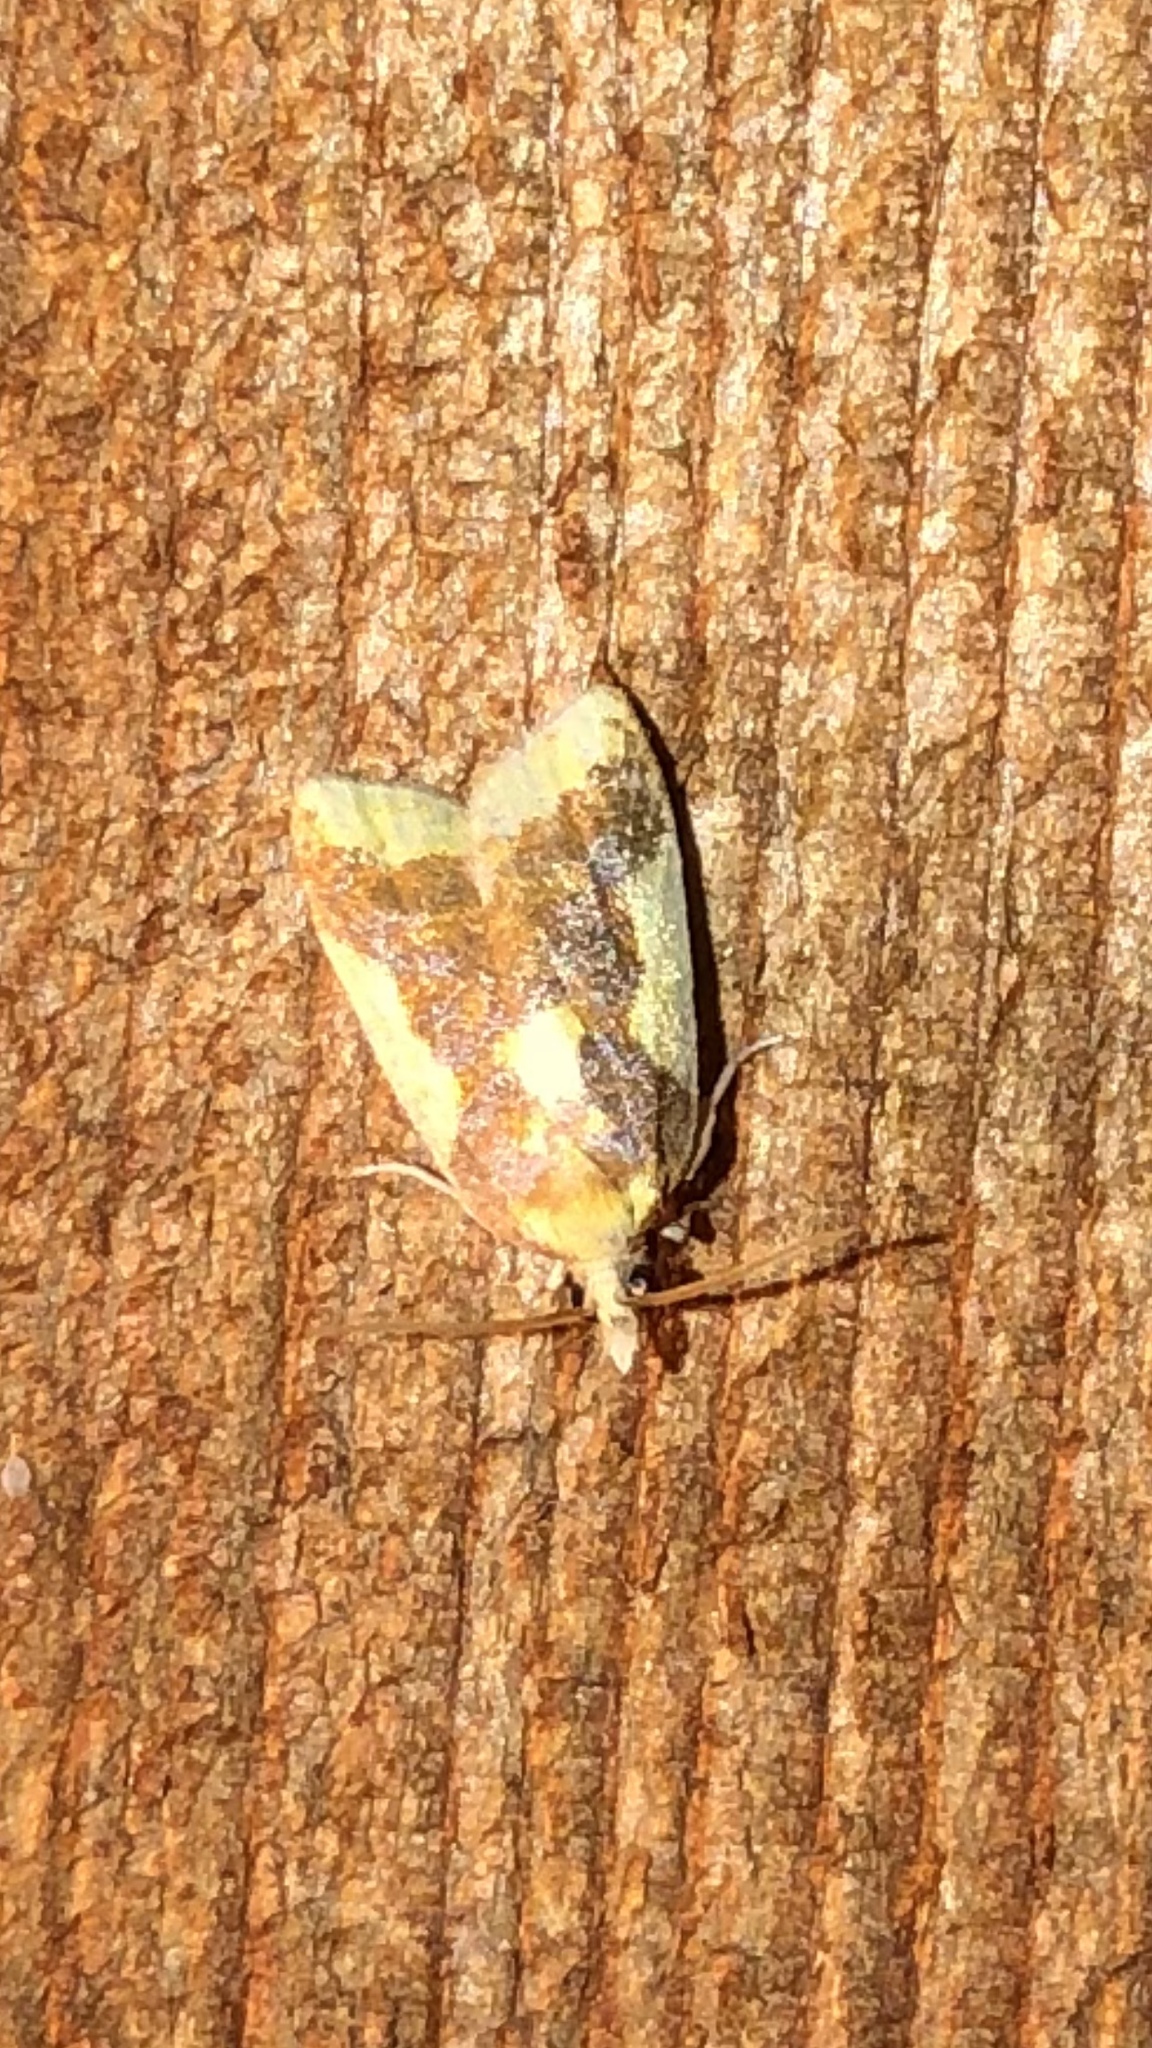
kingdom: Animalia
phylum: Arthropoda
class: Insecta
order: Lepidoptera
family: Tortricidae
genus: Sparganothis
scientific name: Sparganothis pulcherrimana
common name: Beautiful sparganothis
